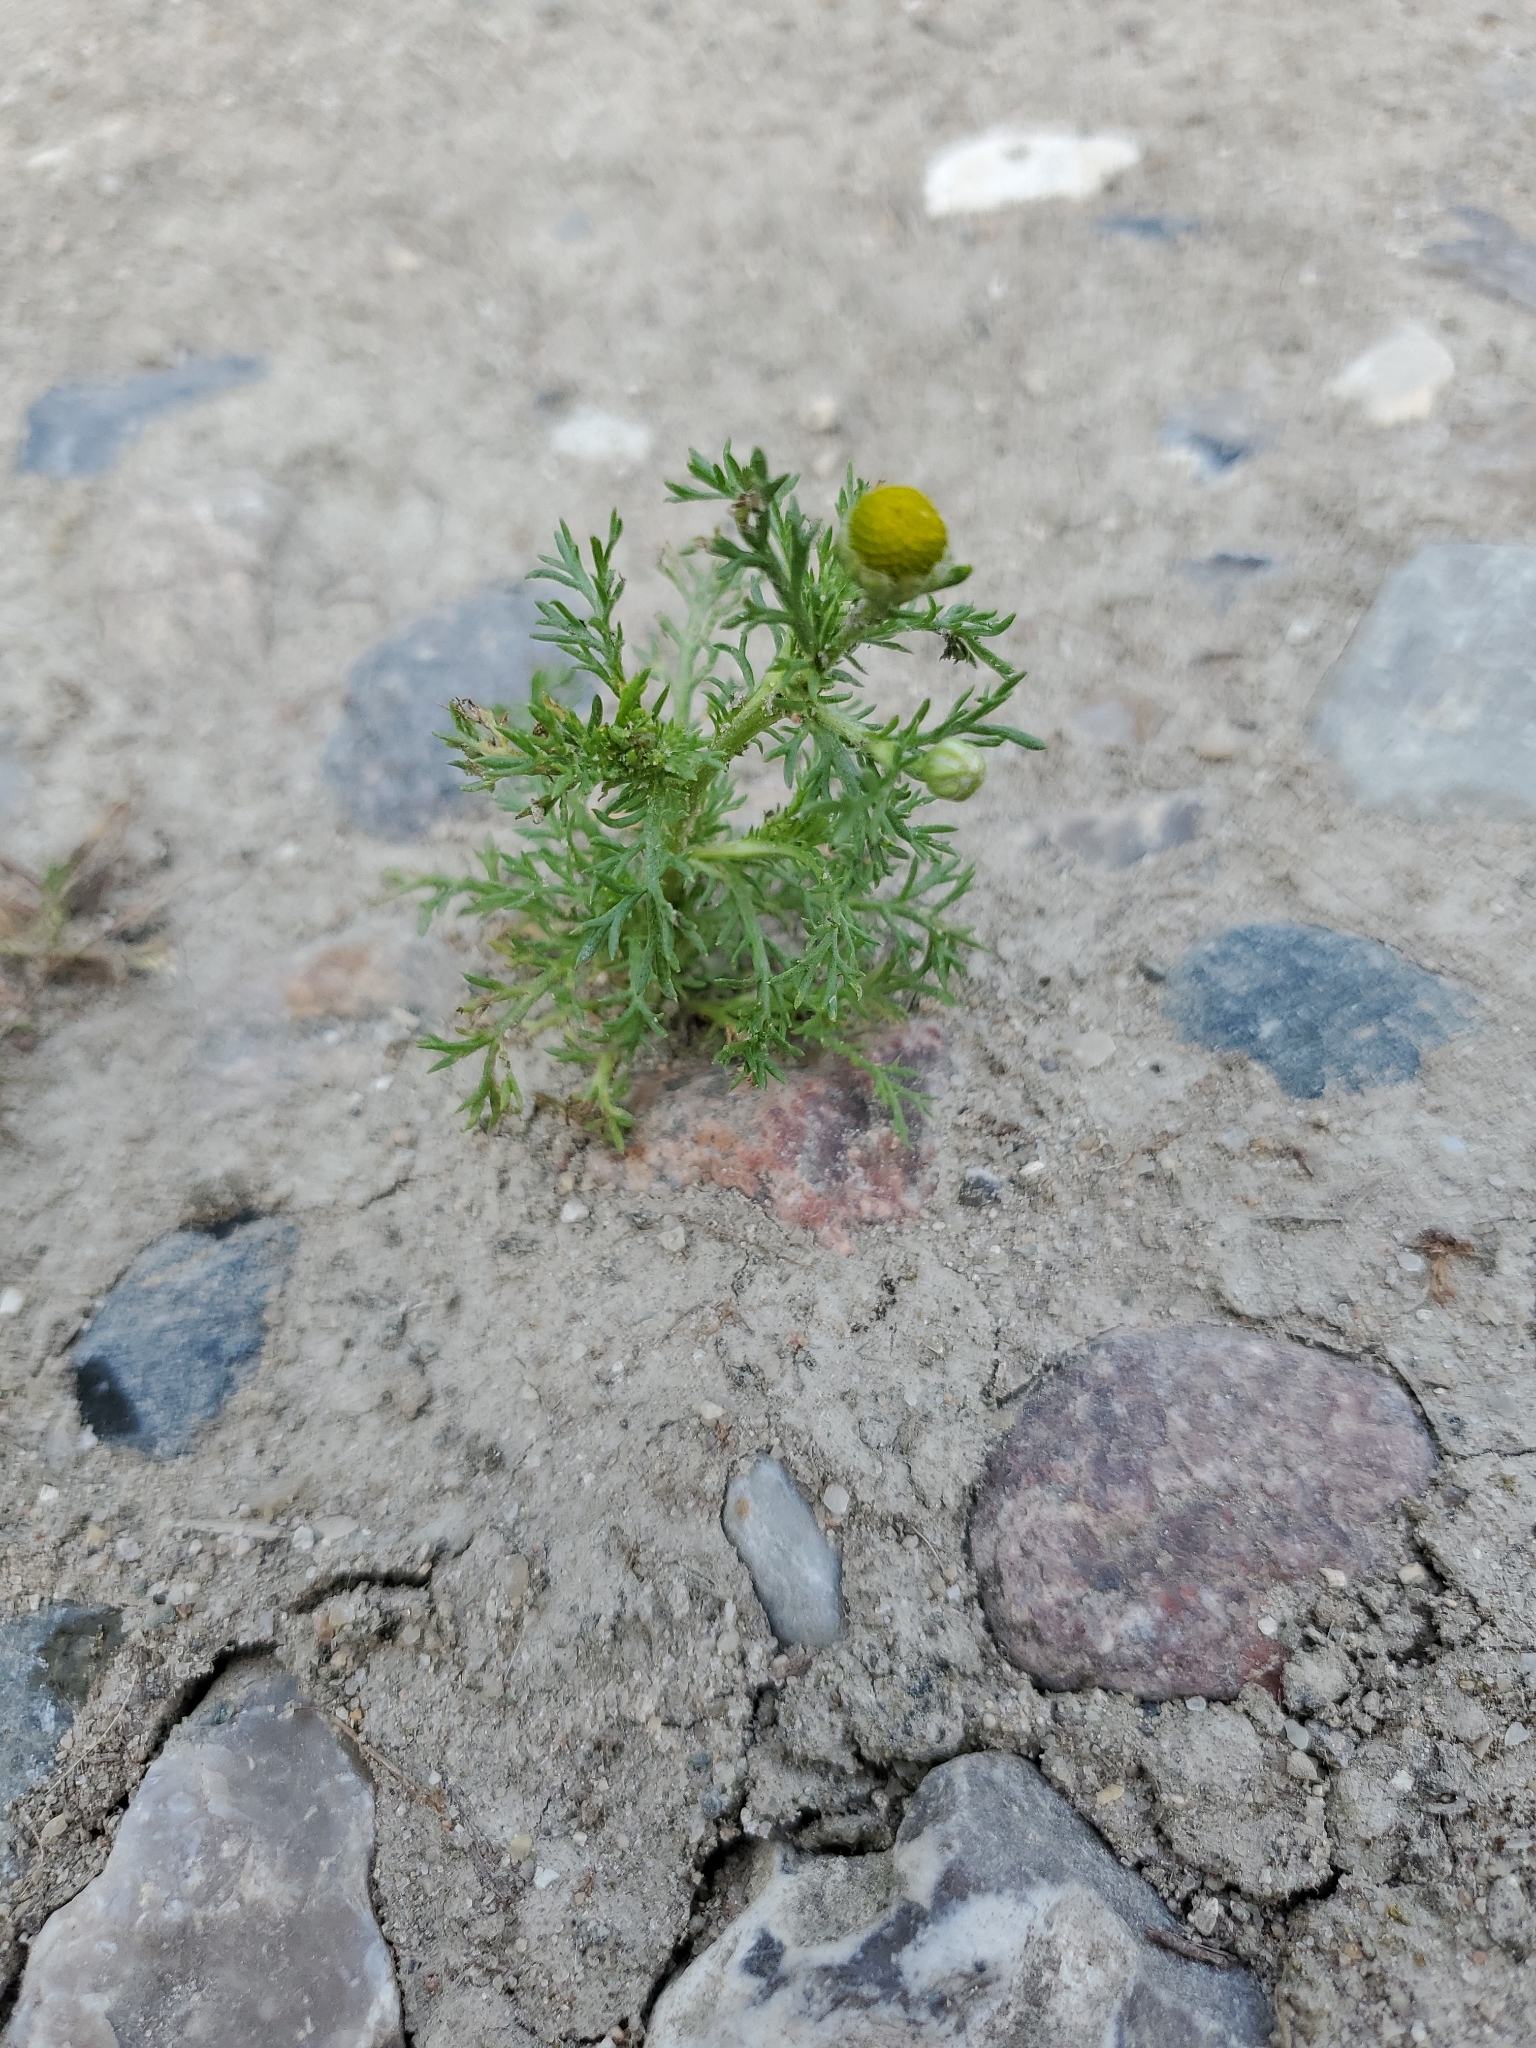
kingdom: Plantae
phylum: Tracheophyta
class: Magnoliopsida
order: Asterales
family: Asteraceae
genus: Matricaria
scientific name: Matricaria discoidea
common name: Disc mayweed
